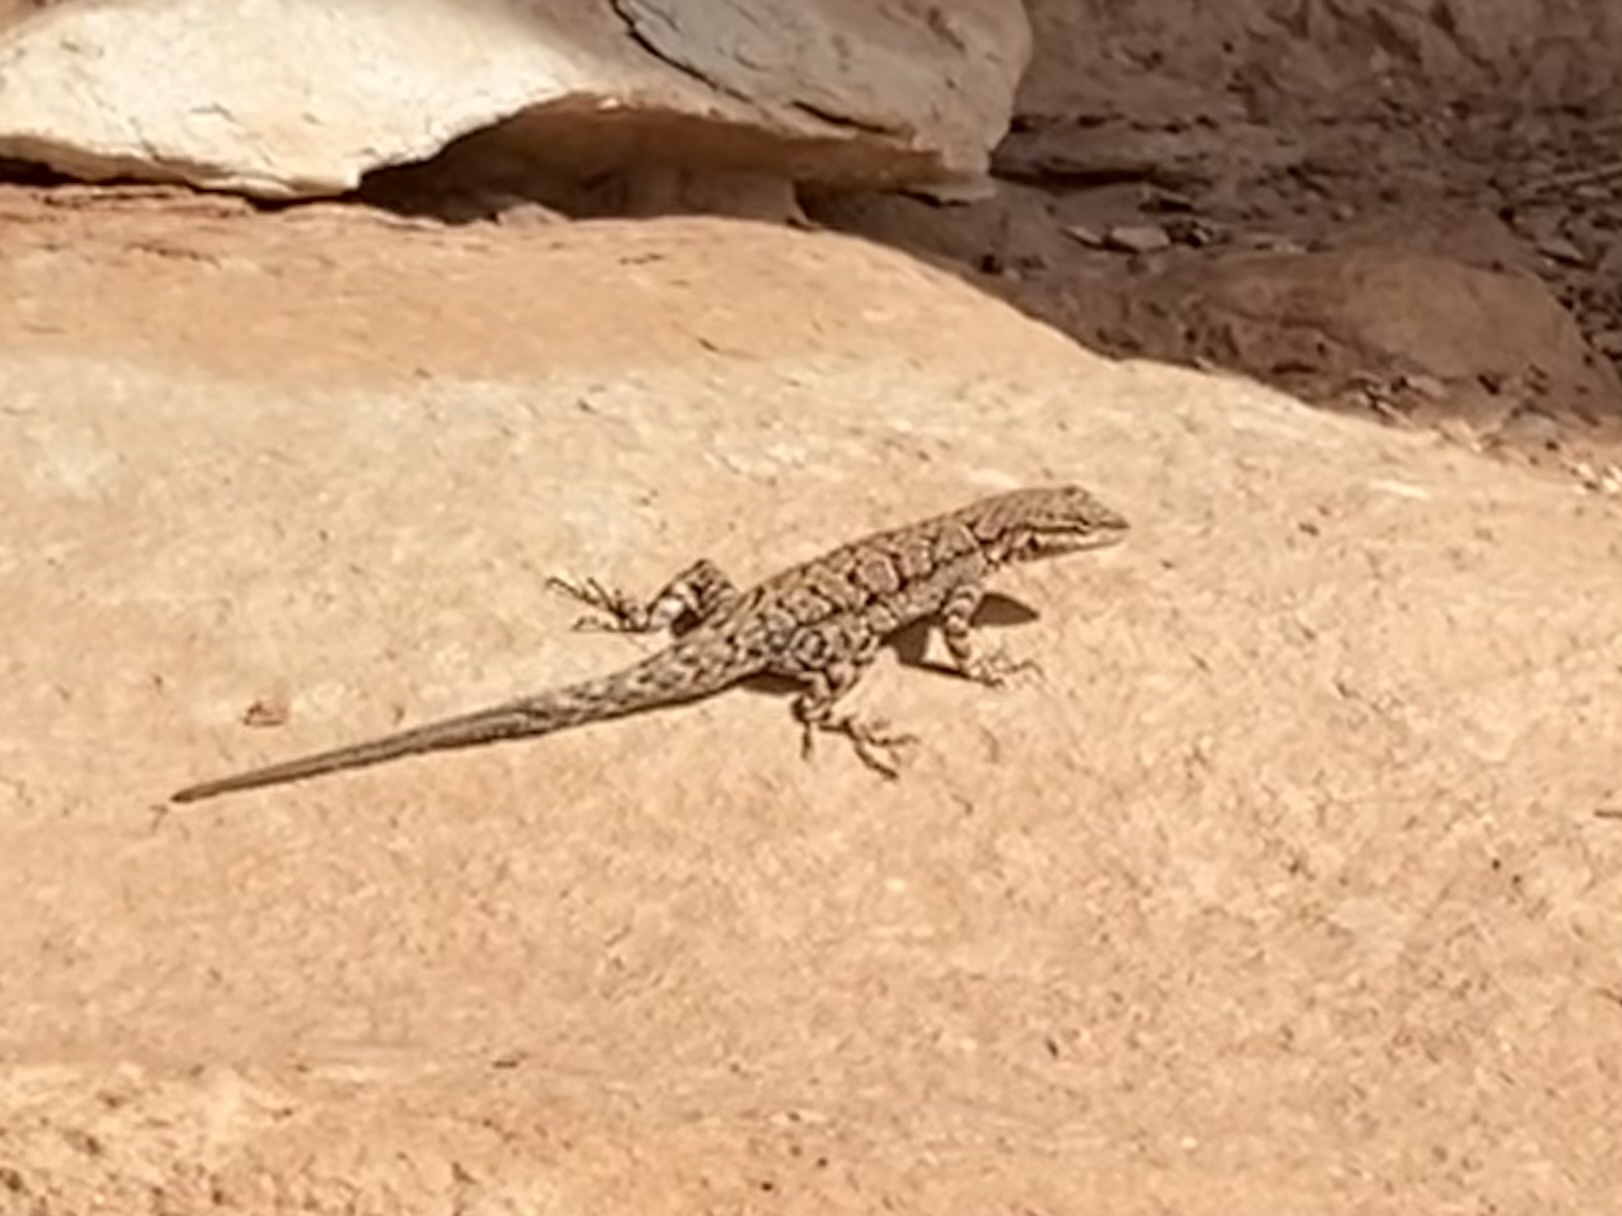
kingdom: Animalia
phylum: Chordata
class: Squamata
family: Phrynosomatidae
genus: Urosaurus
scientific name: Urosaurus ornatus
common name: Ornate tree lizard
